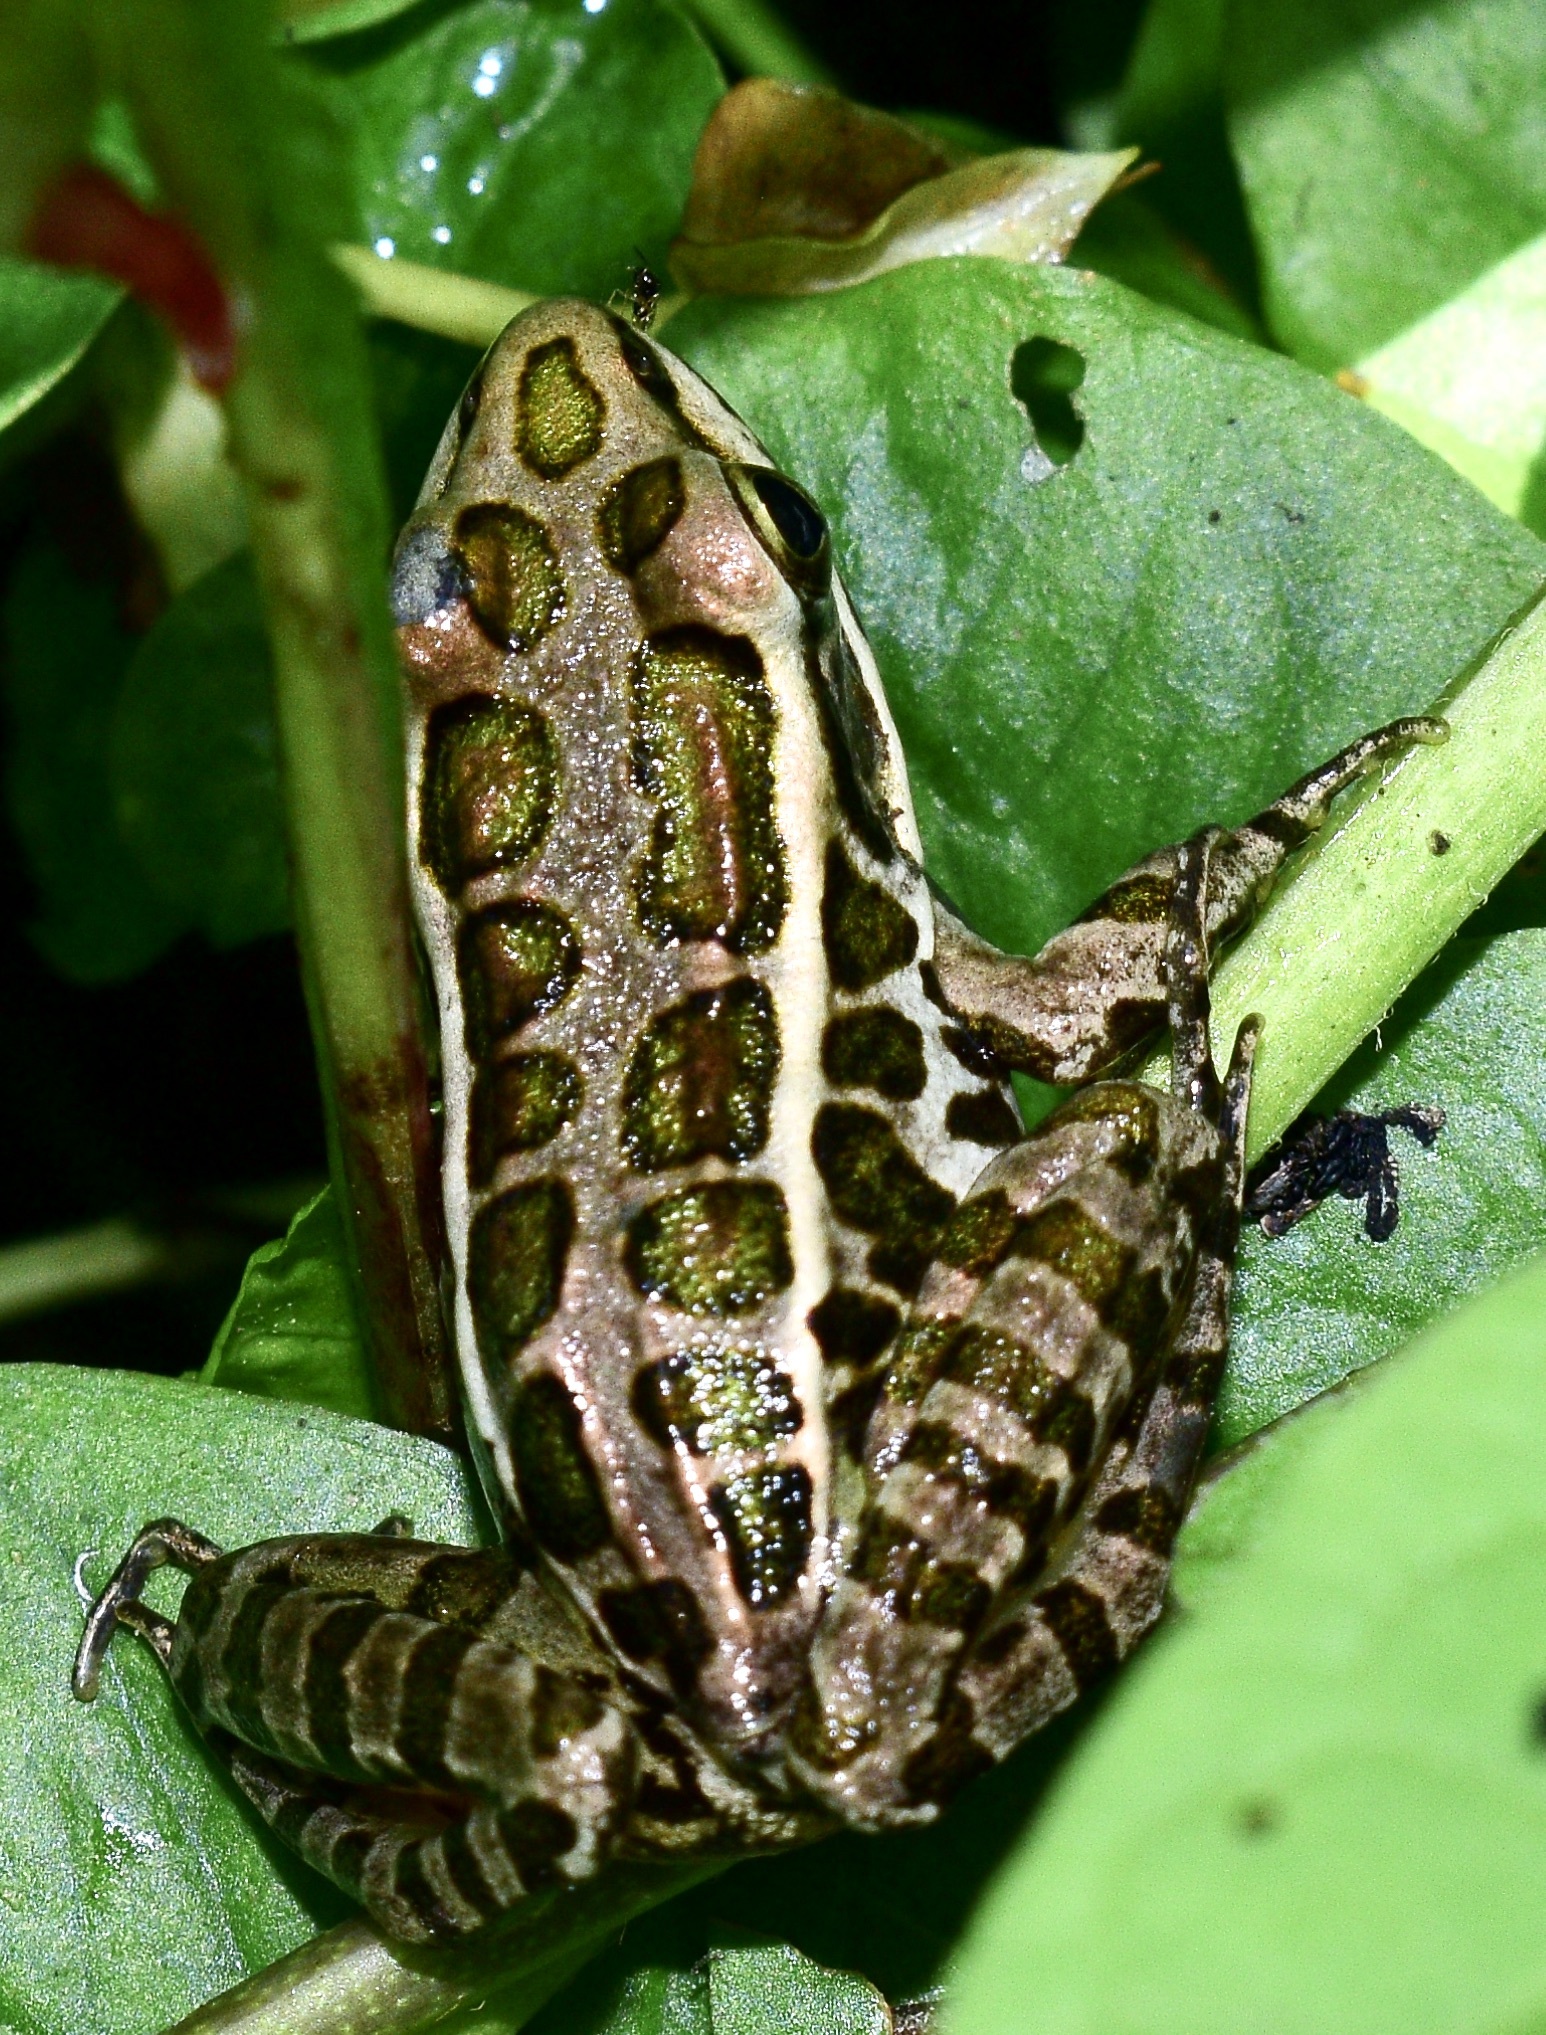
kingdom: Animalia
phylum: Chordata
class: Amphibia
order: Anura
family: Ranidae
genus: Lithobates
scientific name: Lithobates palustris
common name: Pickerel frog
